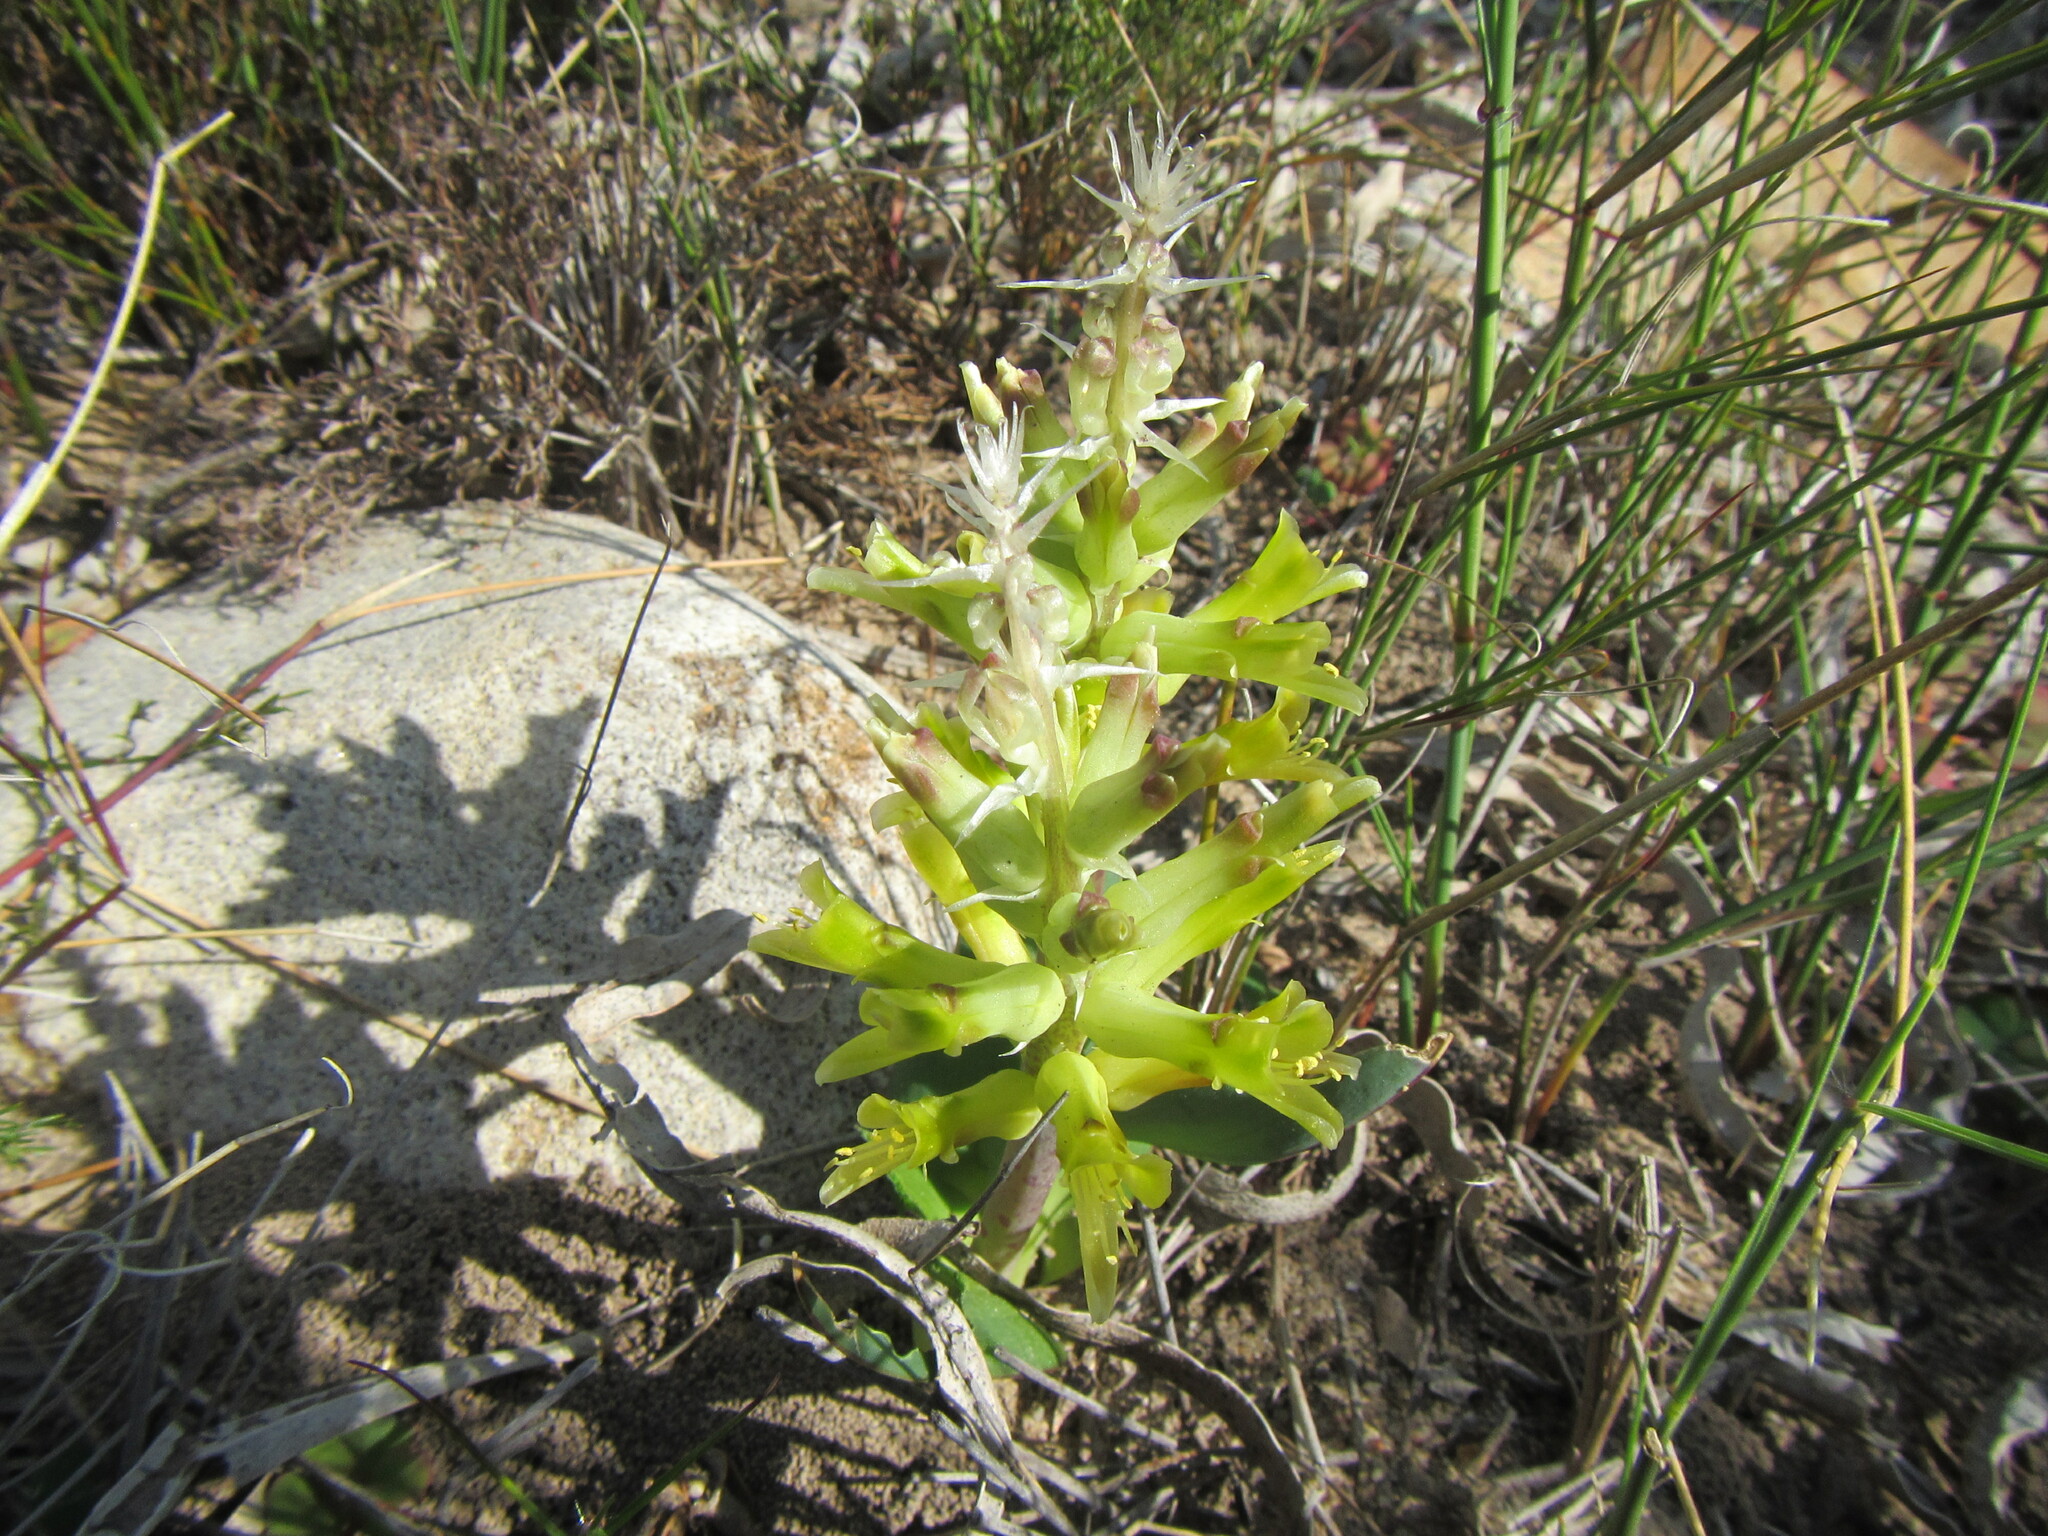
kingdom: Plantae
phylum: Tracheophyta
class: Liliopsida
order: Asparagales
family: Asparagaceae
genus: Lachenalia
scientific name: Lachenalia orchioides
